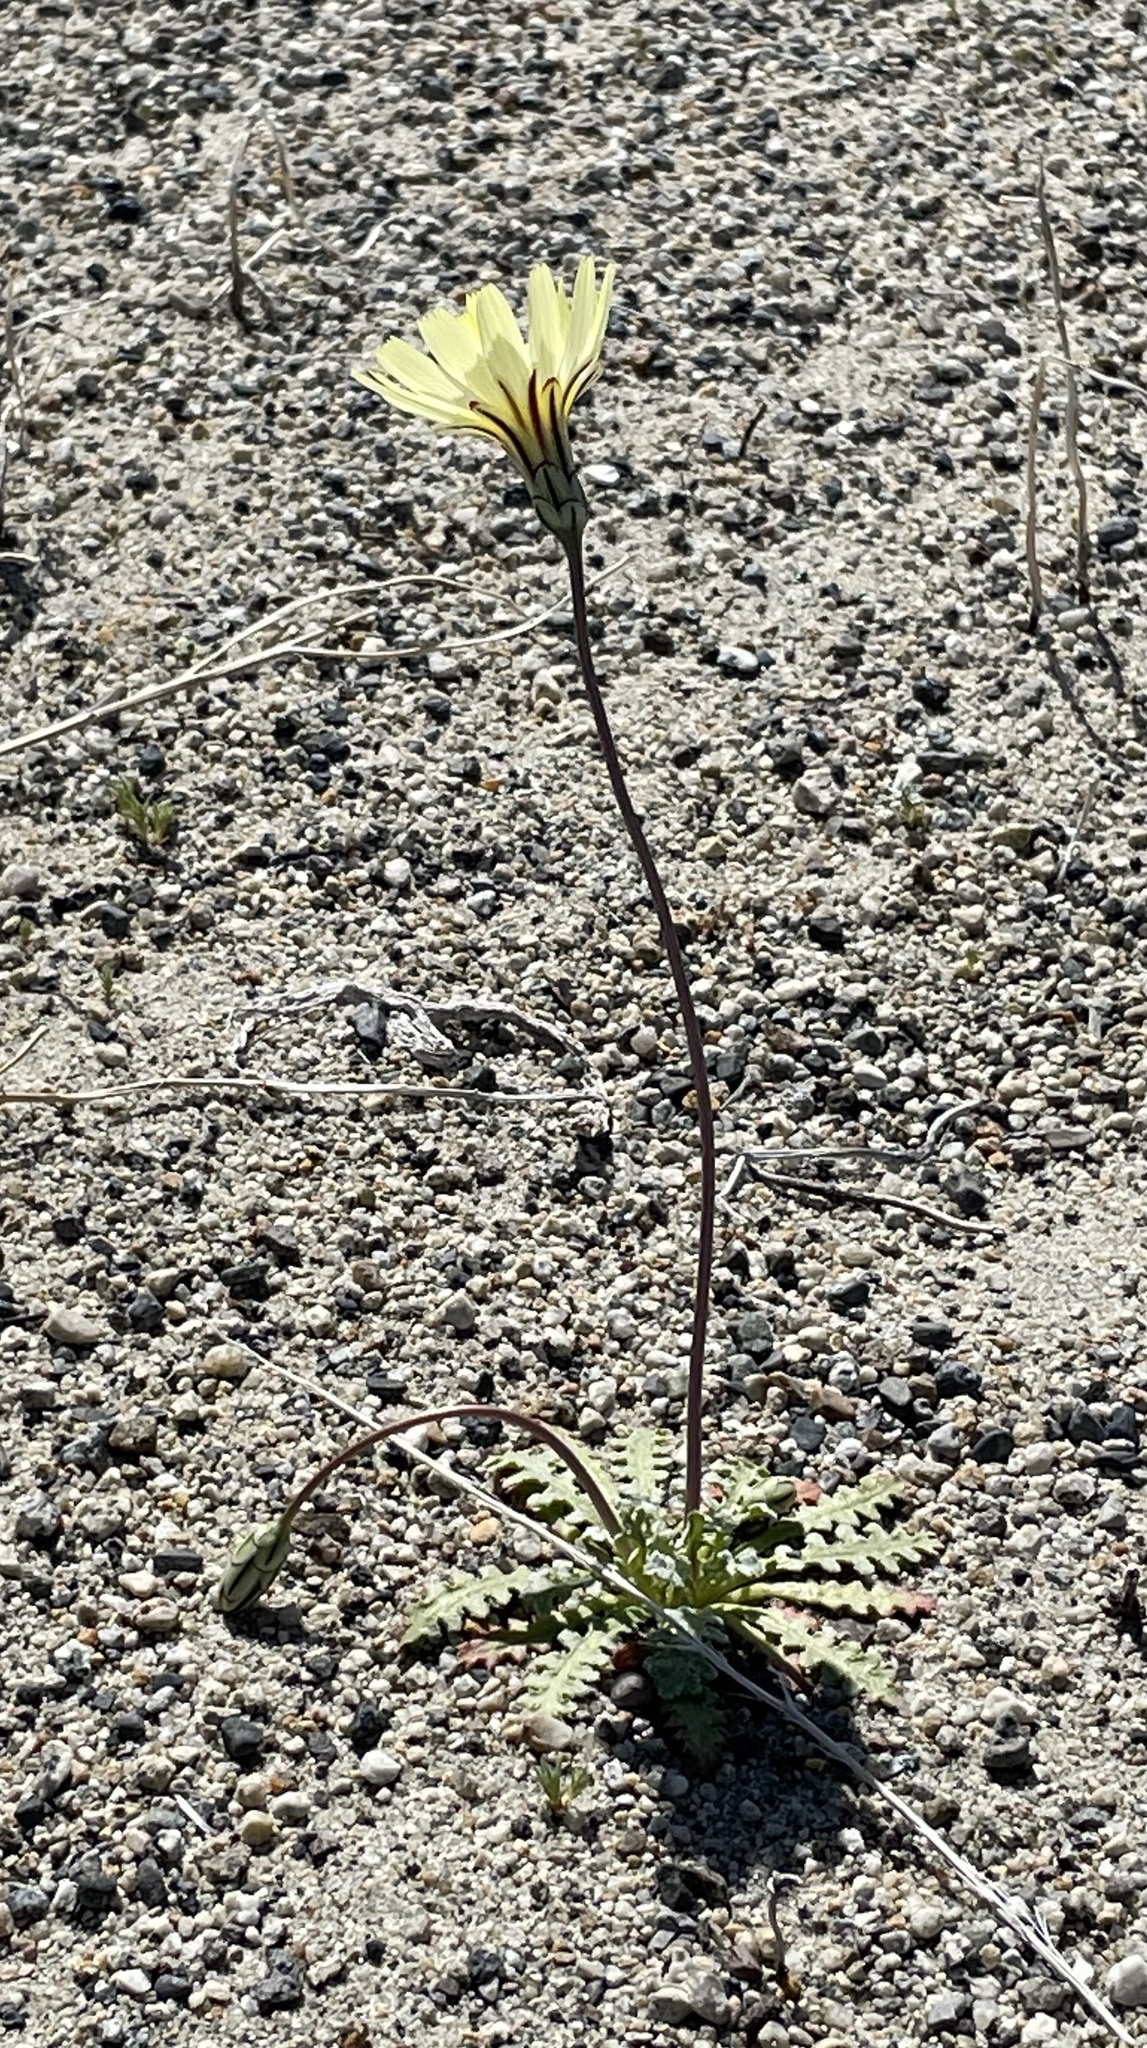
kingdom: Plantae
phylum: Tracheophyta
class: Magnoliopsida
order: Asterales
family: Asteraceae
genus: Anisocoma
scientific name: Anisocoma acaulis
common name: Scalebud
